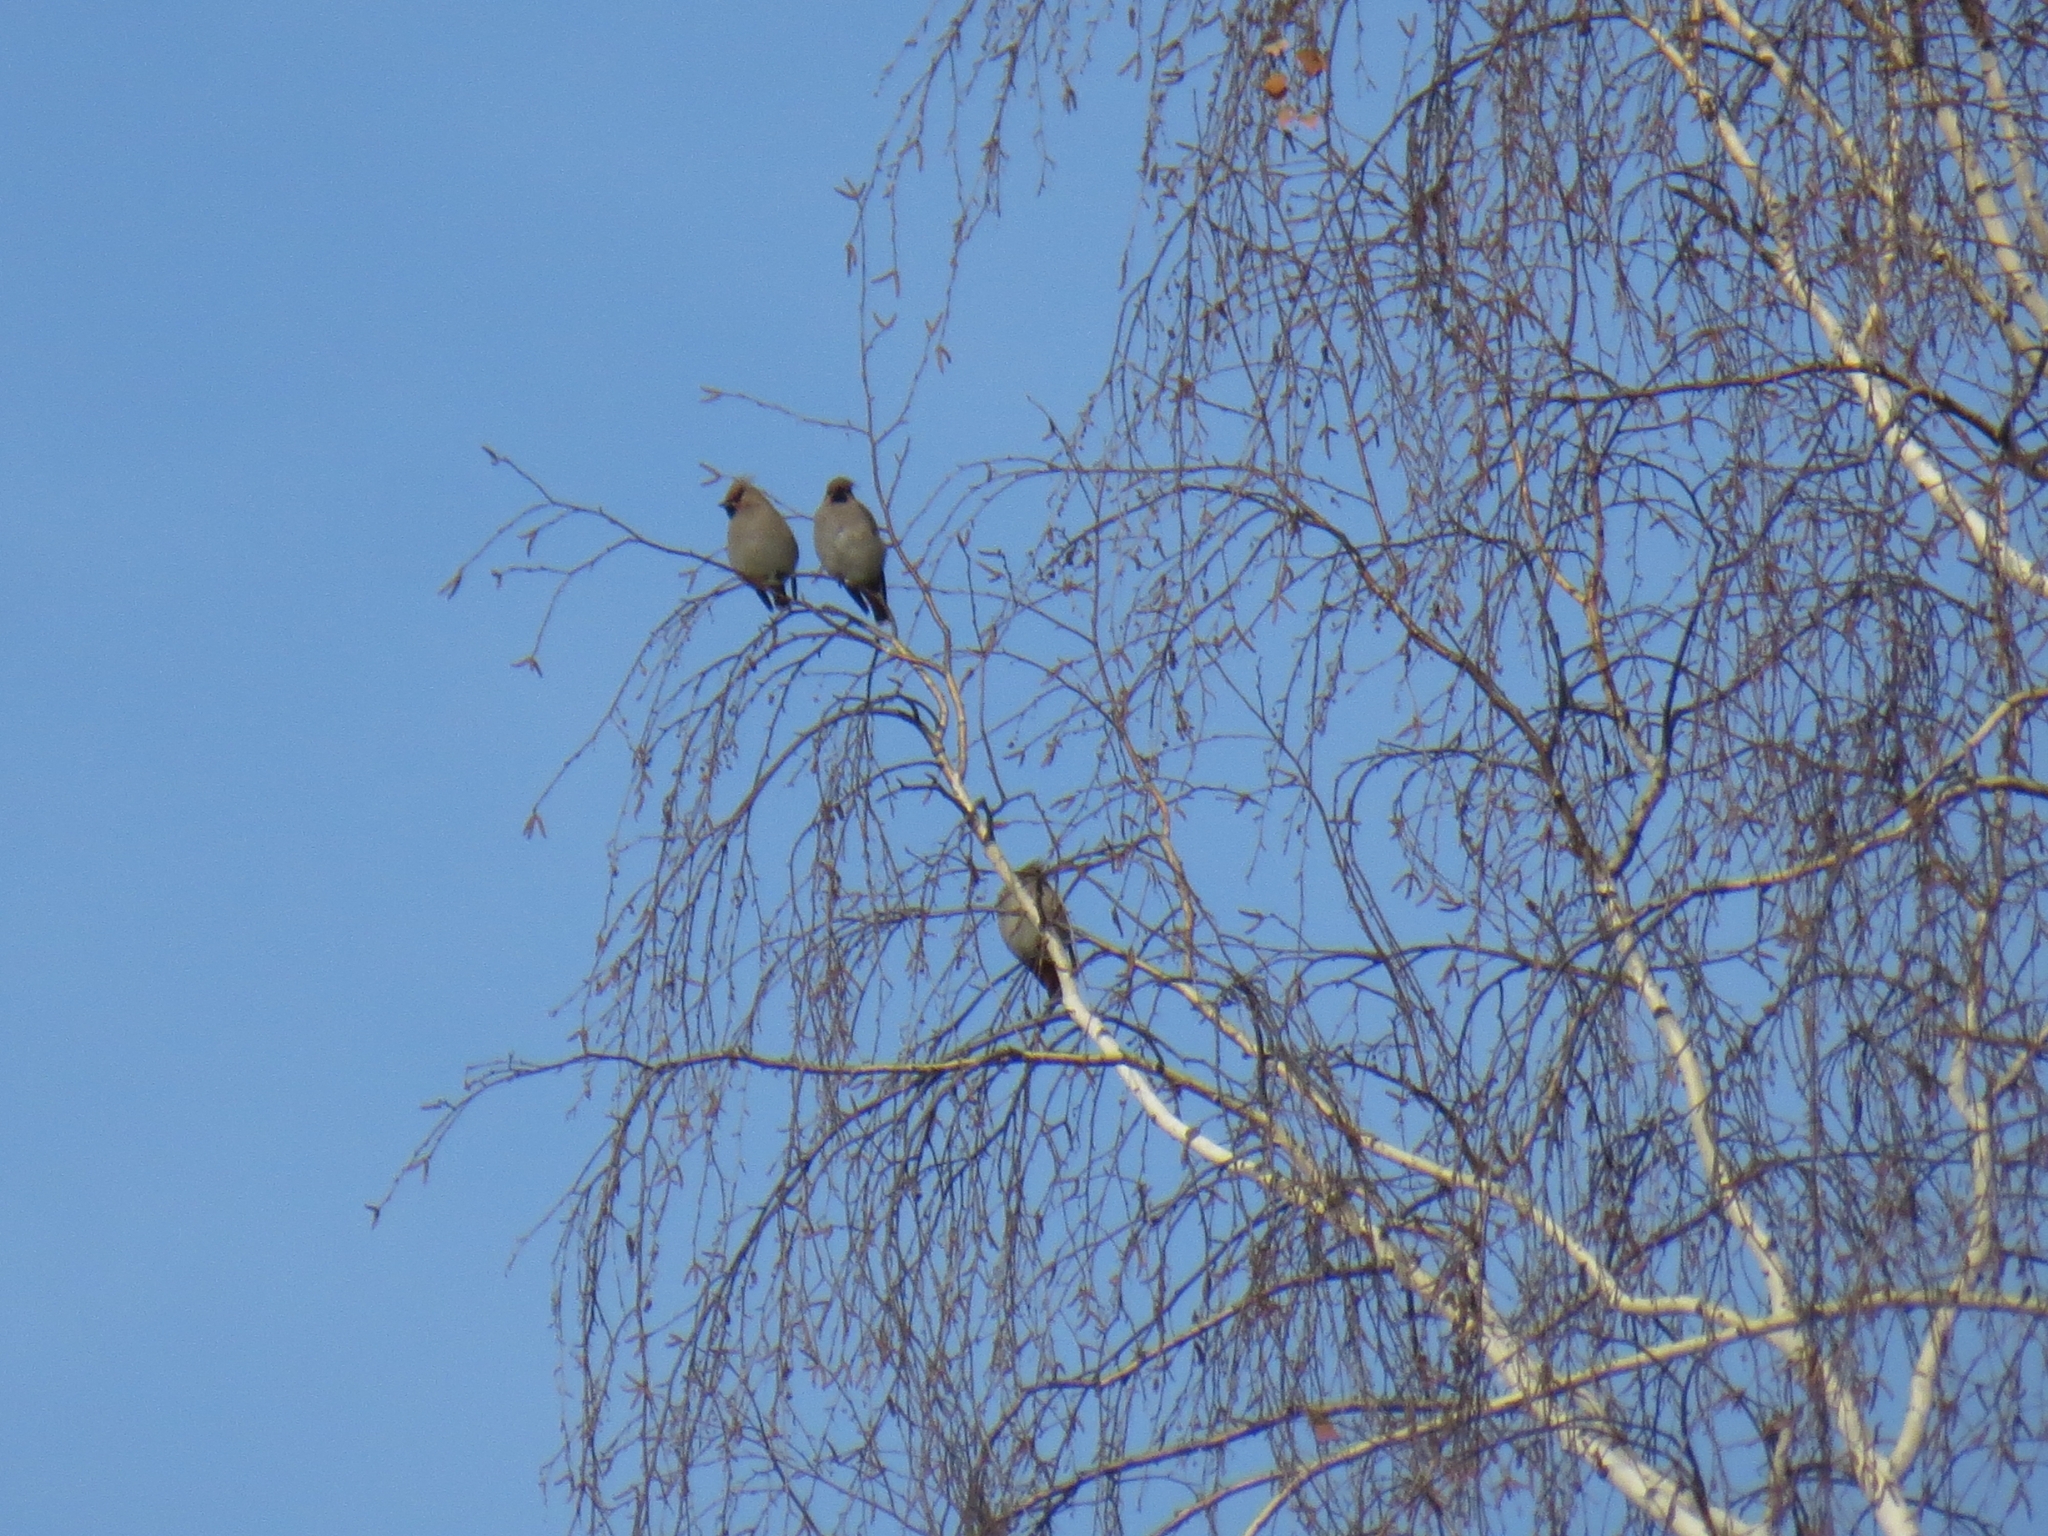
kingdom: Animalia
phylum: Chordata
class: Aves
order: Passeriformes
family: Bombycillidae
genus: Bombycilla
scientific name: Bombycilla garrulus
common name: Bohemian waxwing
